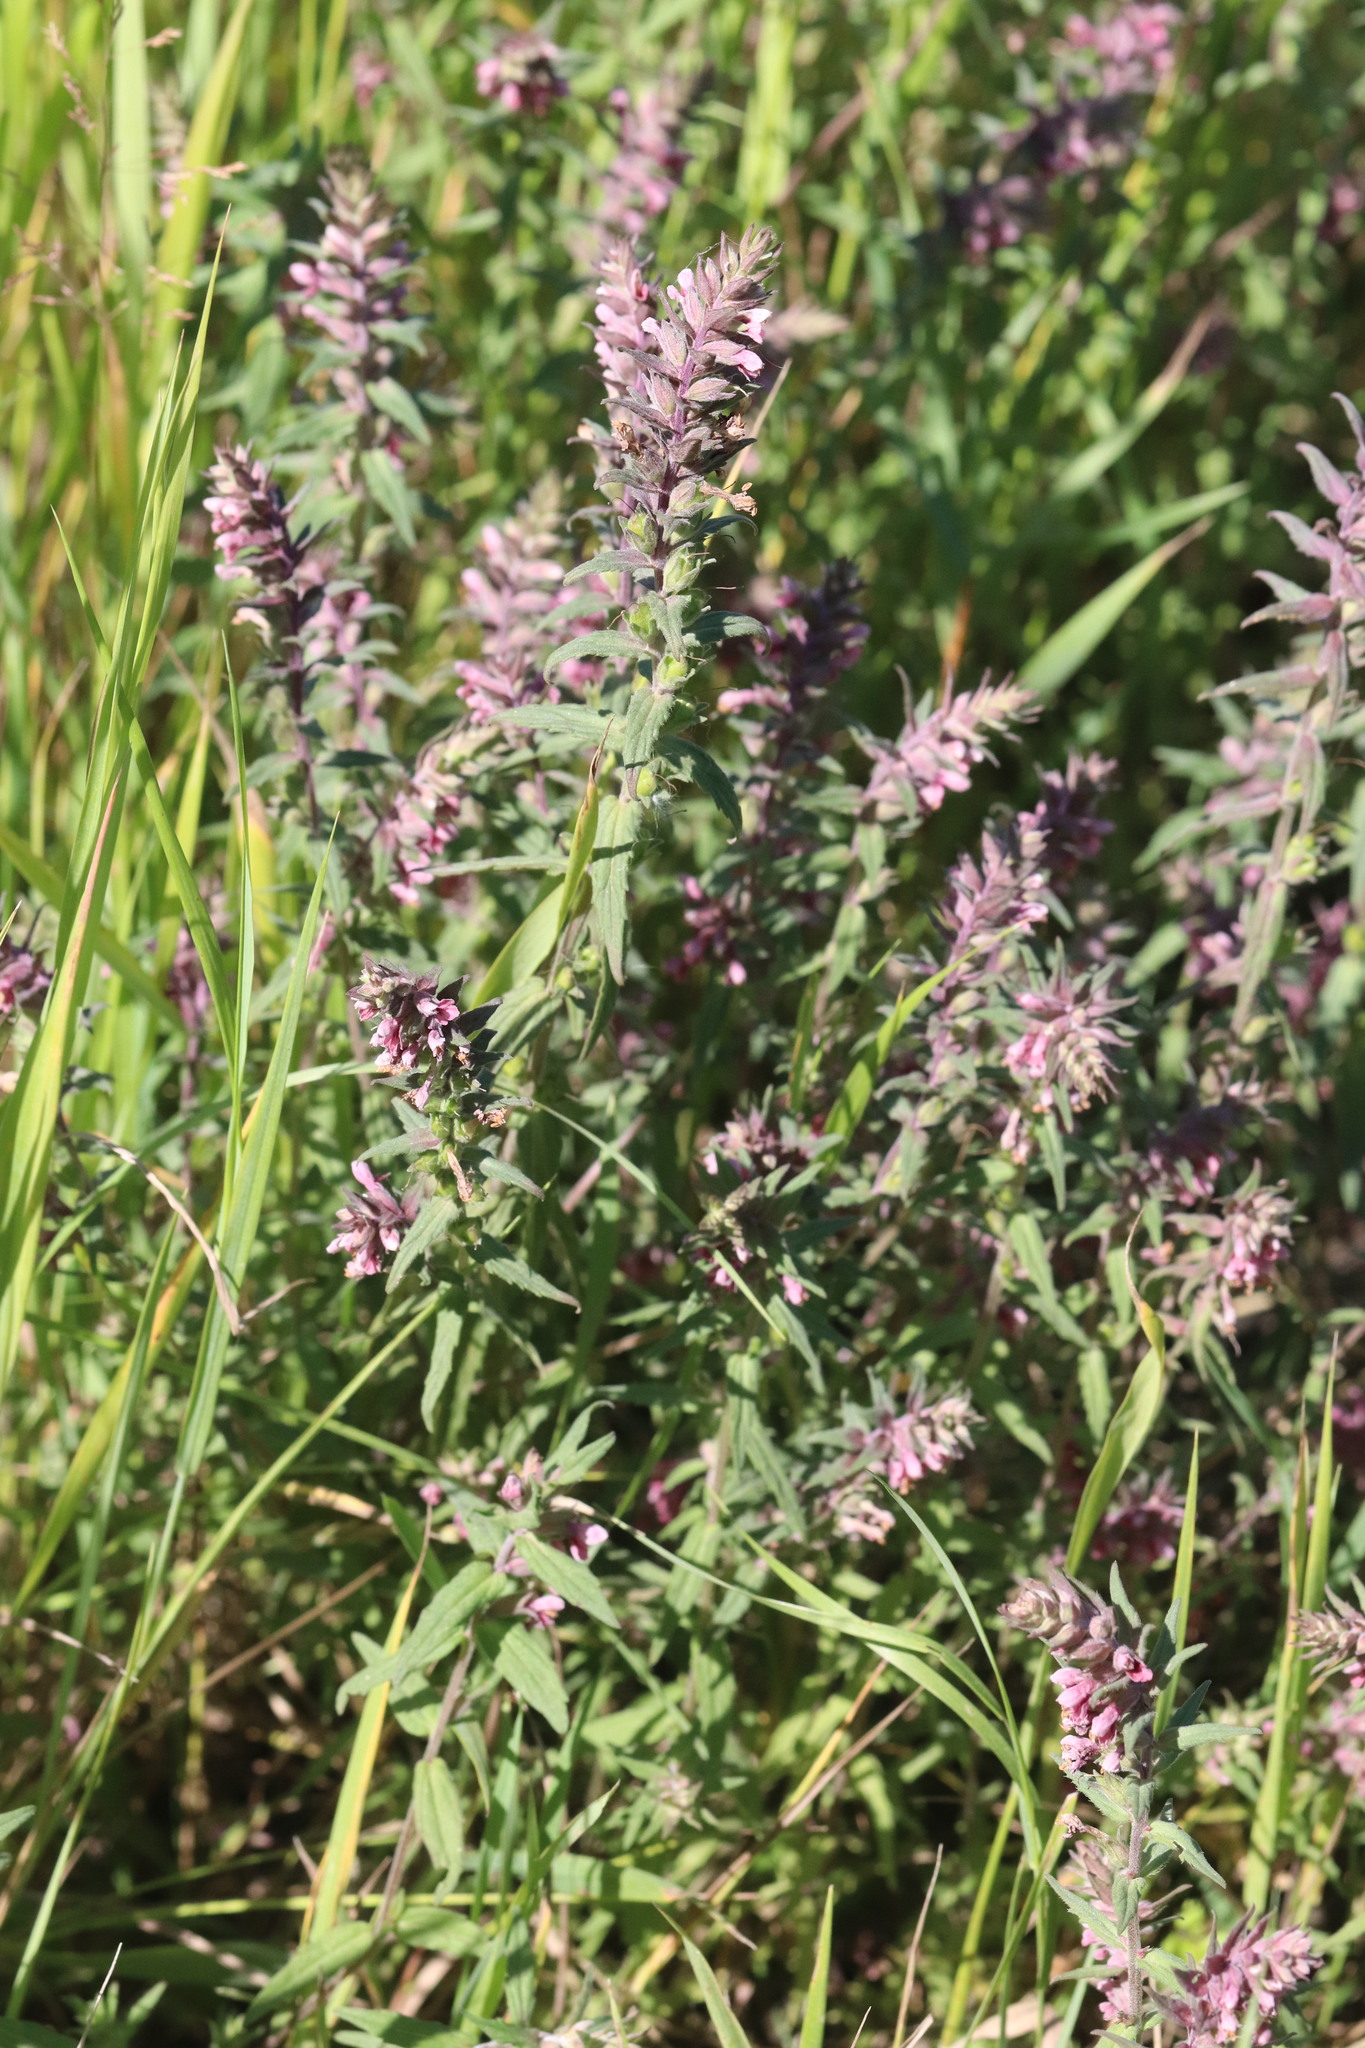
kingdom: Plantae
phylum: Tracheophyta
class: Magnoliopsida
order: Lamiales
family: Orobanchaceae
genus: Odontites
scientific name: Odontites vulgaris
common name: Broomrape
